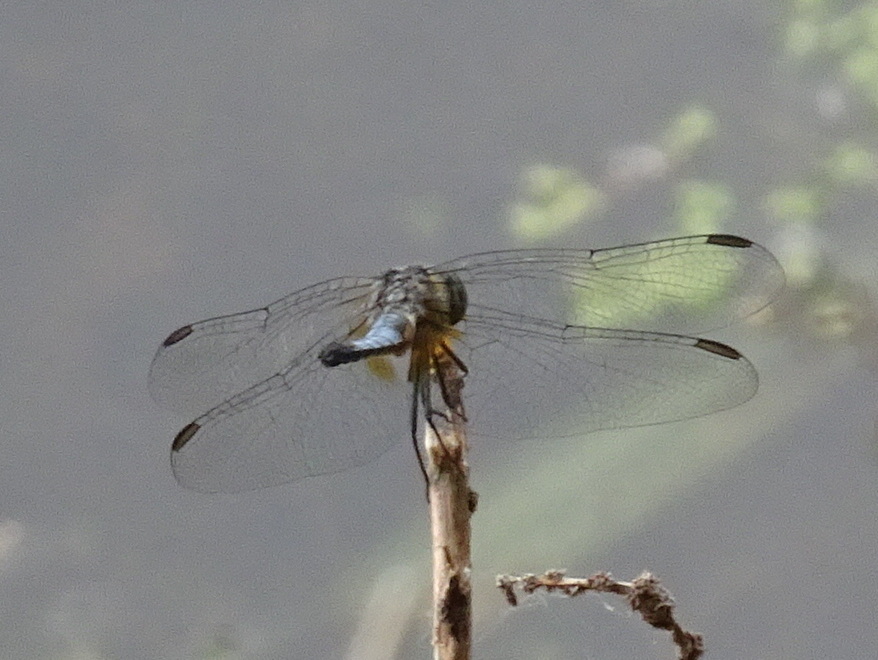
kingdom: Animalia
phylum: Arthropoda
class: Insecta
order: Odonata
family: Libellulidae
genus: Pachydiplax
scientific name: Pachydiplax longipennis
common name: Blue dasher
